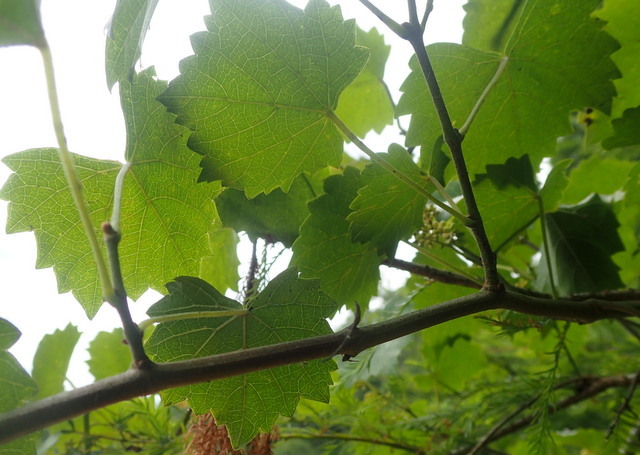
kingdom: Plantae
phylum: Tracheophyta
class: Magnoliopsida
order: Vitales
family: Vitaceae
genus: Vitis
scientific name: Vitis rotundifolia
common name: Muscadine grape
